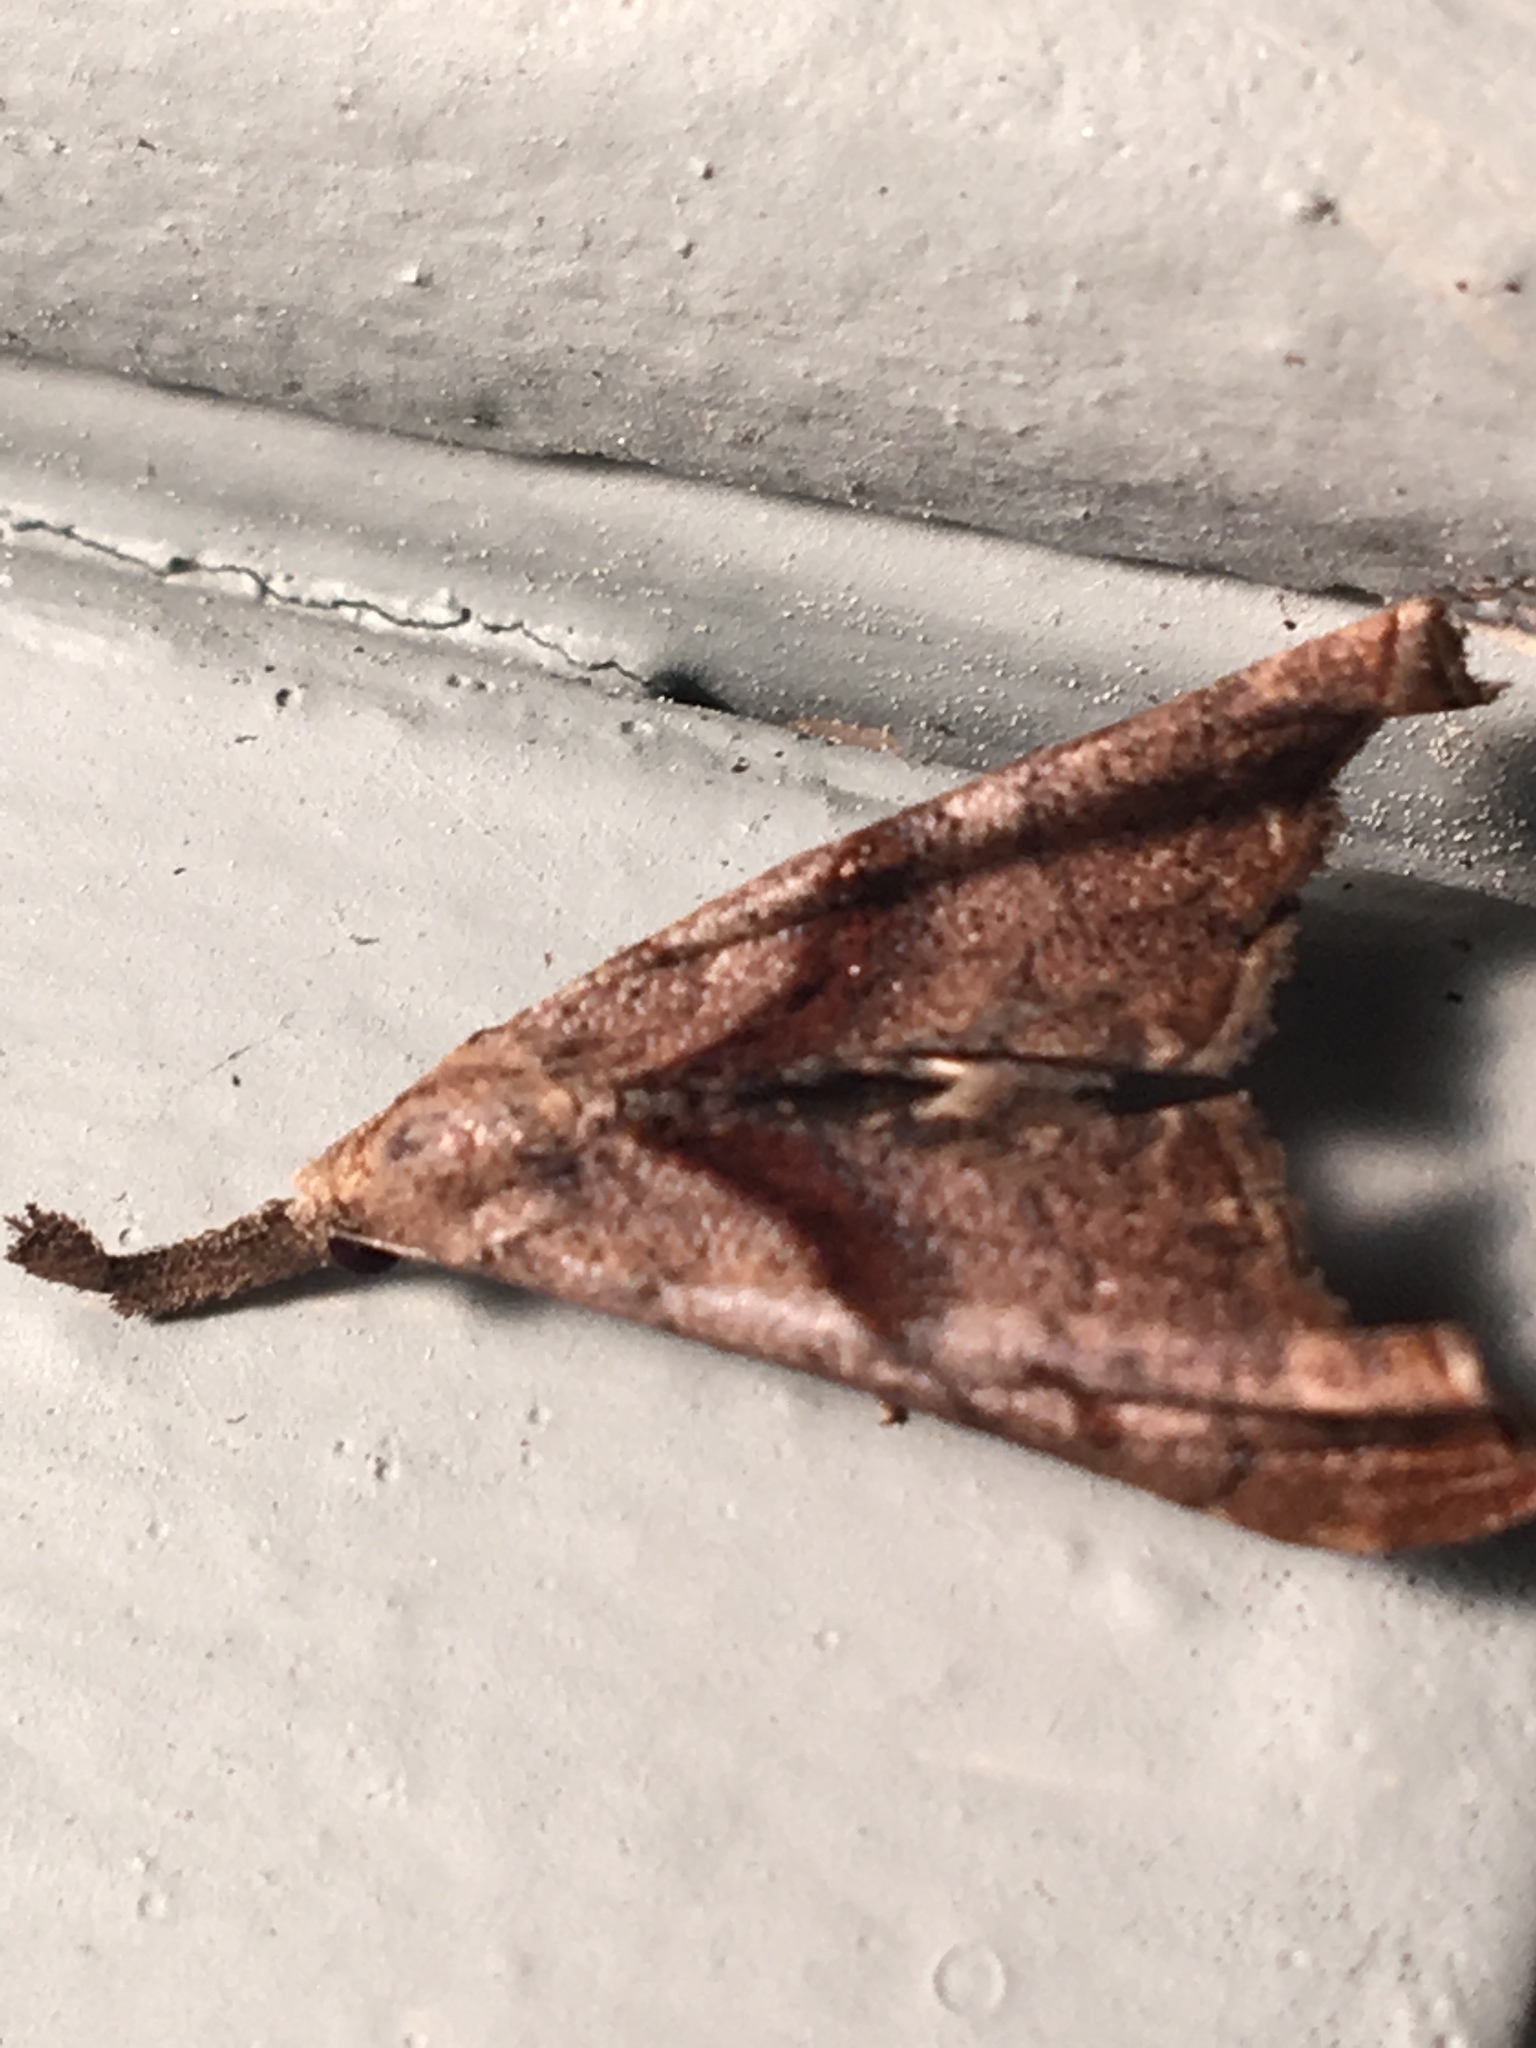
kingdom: Animalia
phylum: Arthropoda
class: Insecta
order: Lepidoptera
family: Erebidae
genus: Palthis
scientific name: Palthis angulalis
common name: Dark-spotted palthis moth
